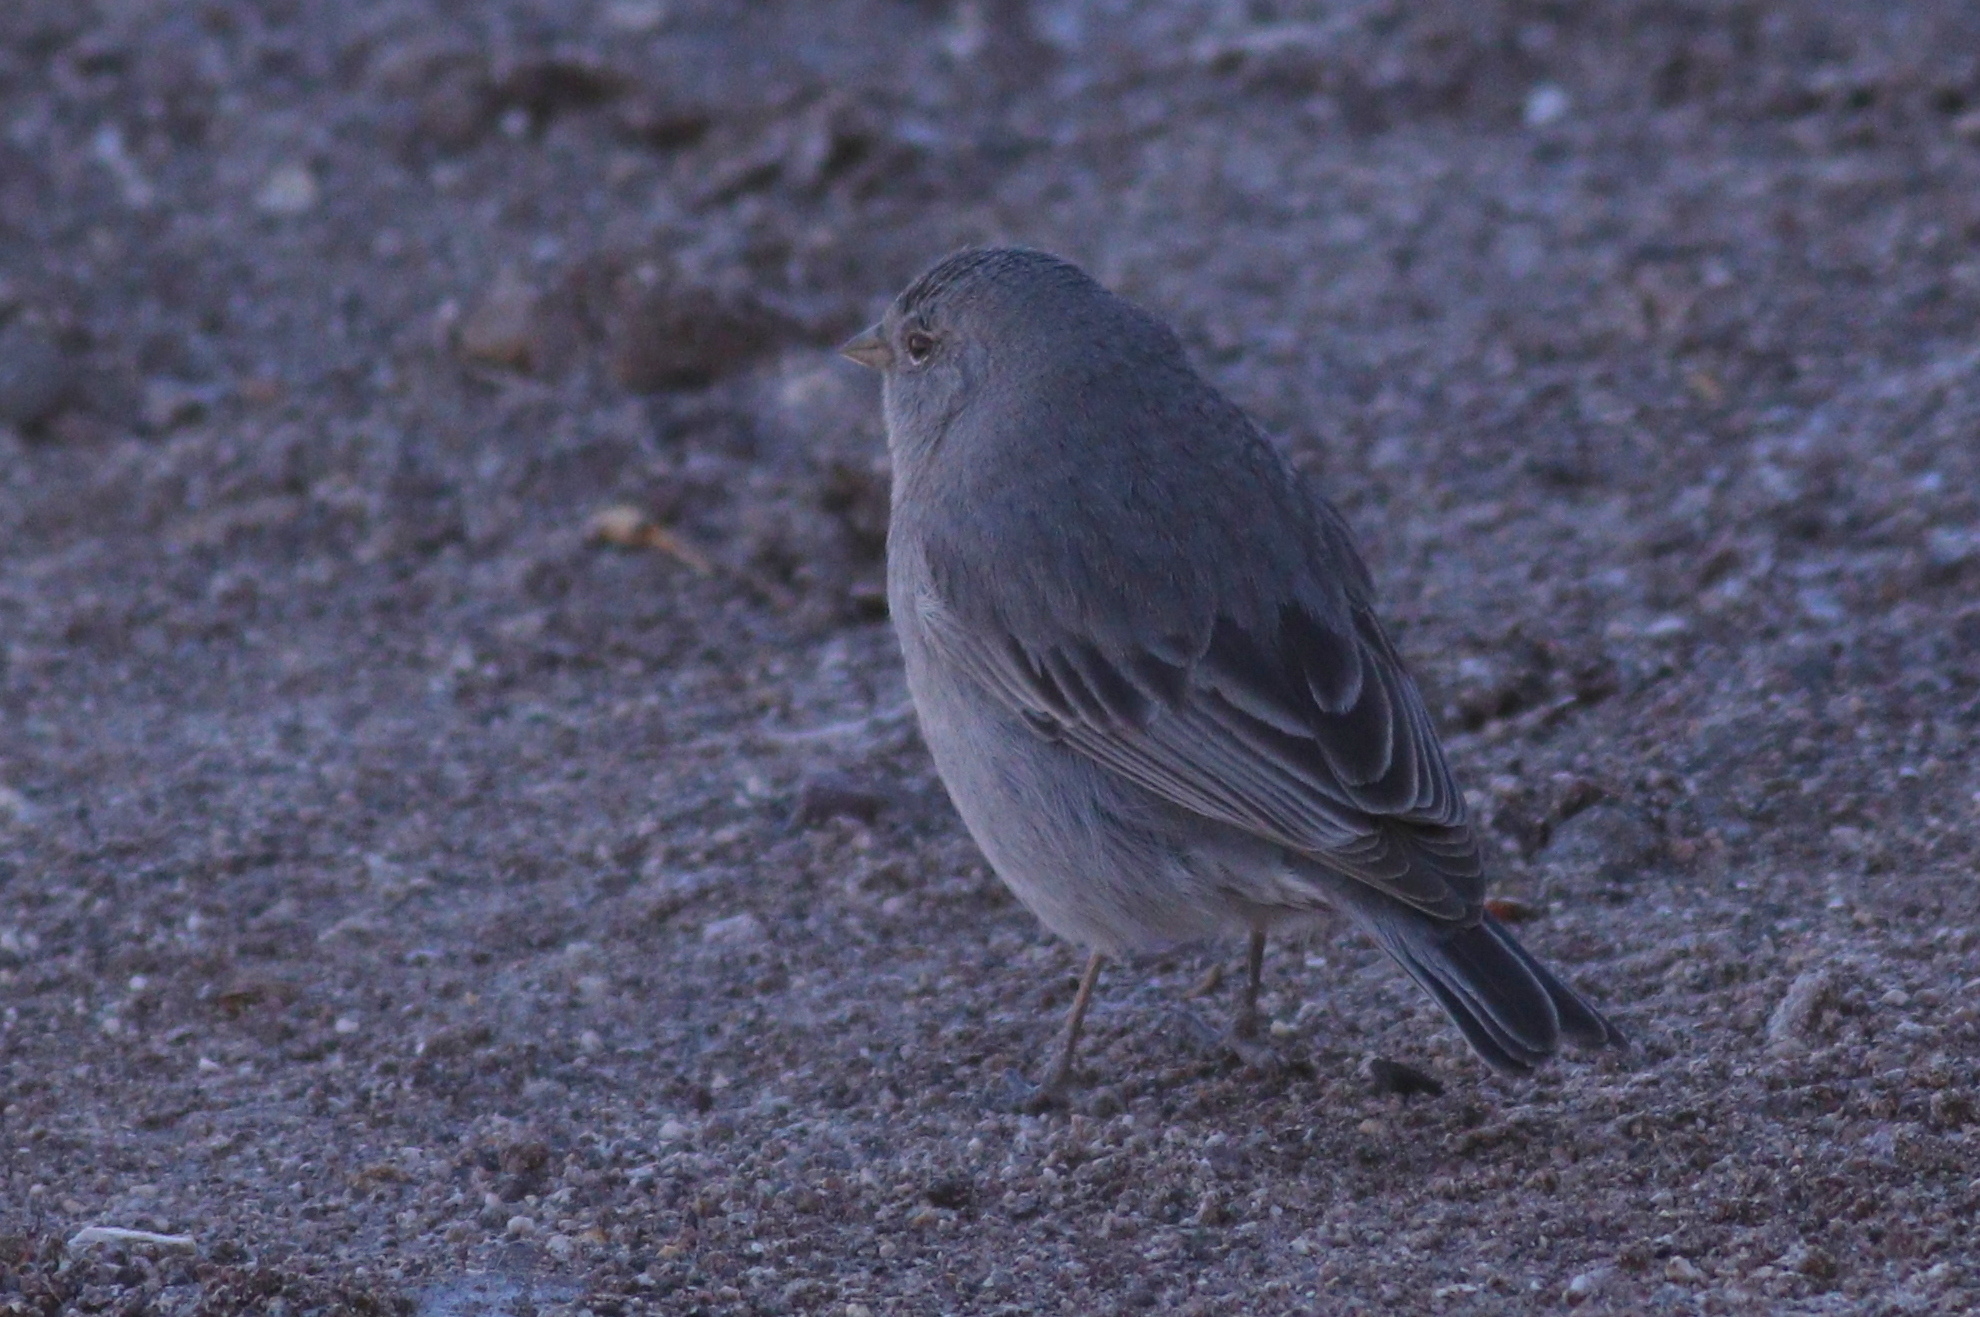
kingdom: Animalia
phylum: Chordata
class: Aves
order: Passeriformes
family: Thraupidae
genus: Geospizopsis
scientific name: Geospizopsis unicolor
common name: Plumbeous sierra-finch
